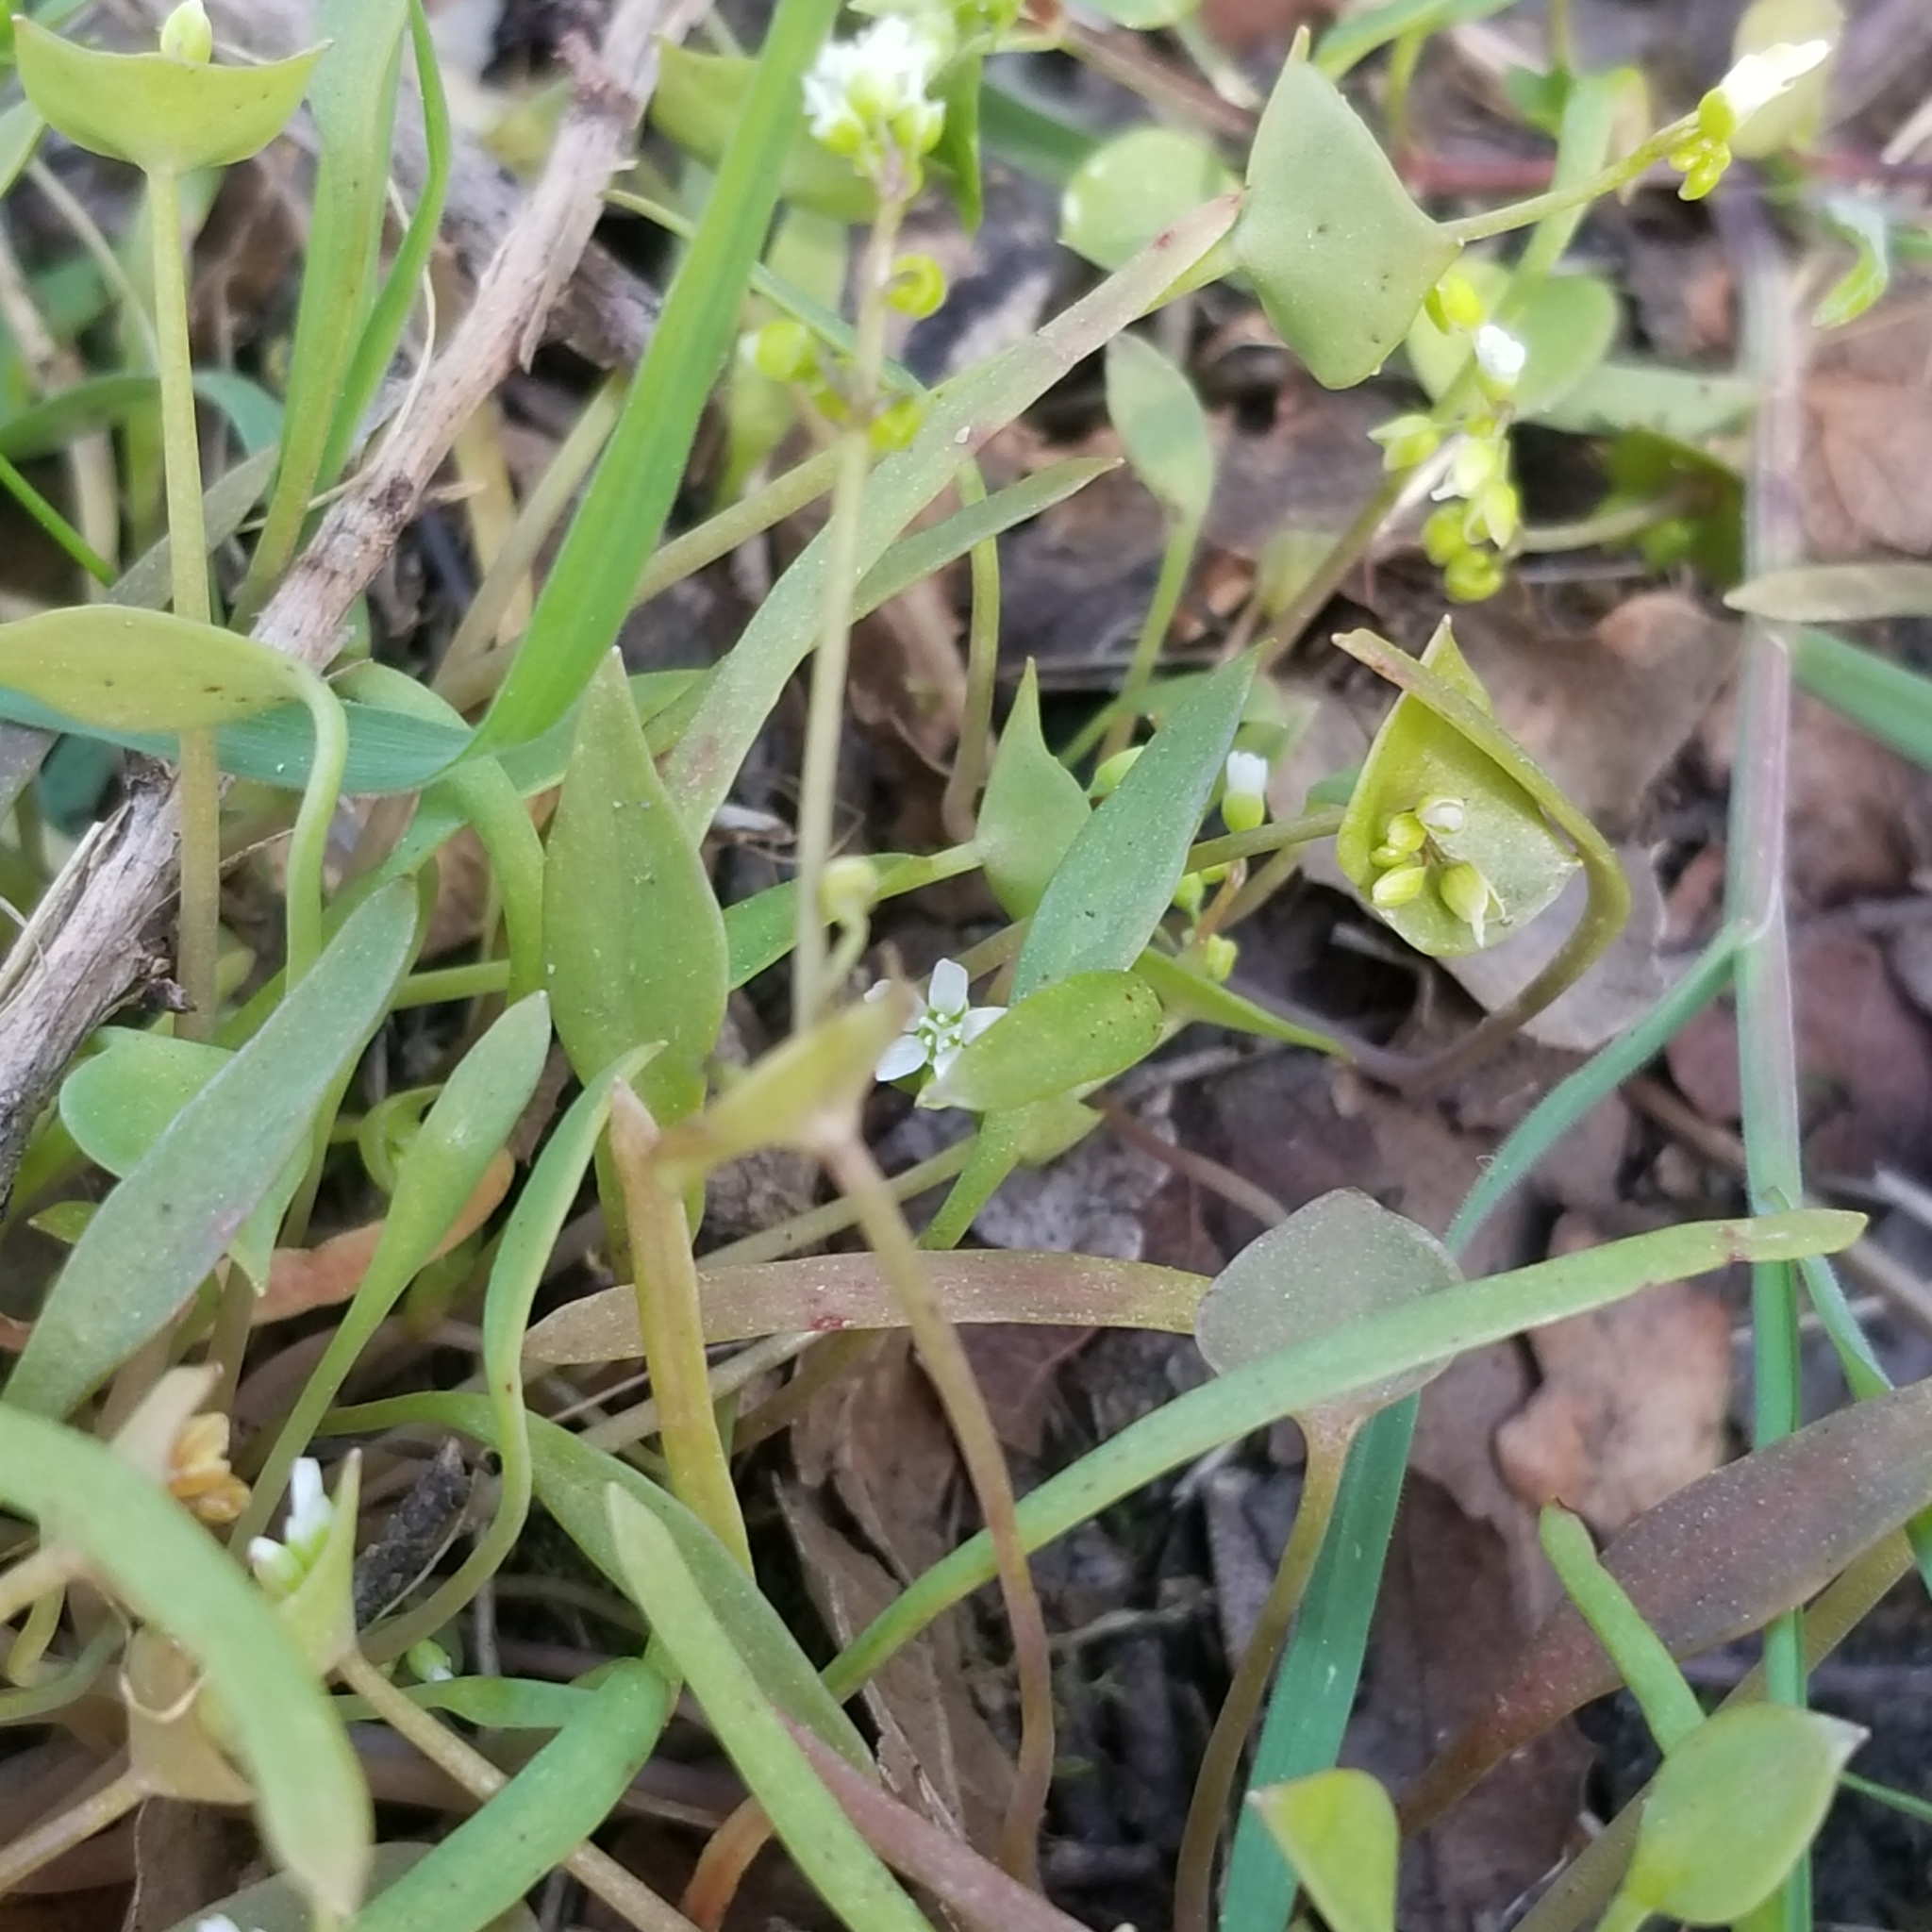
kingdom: Plantae
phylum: Tracheophyta
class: Magnoliopsida
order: Caryophyllales
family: Montiaceae
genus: Claytonia
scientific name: Claytonia perfoliata
